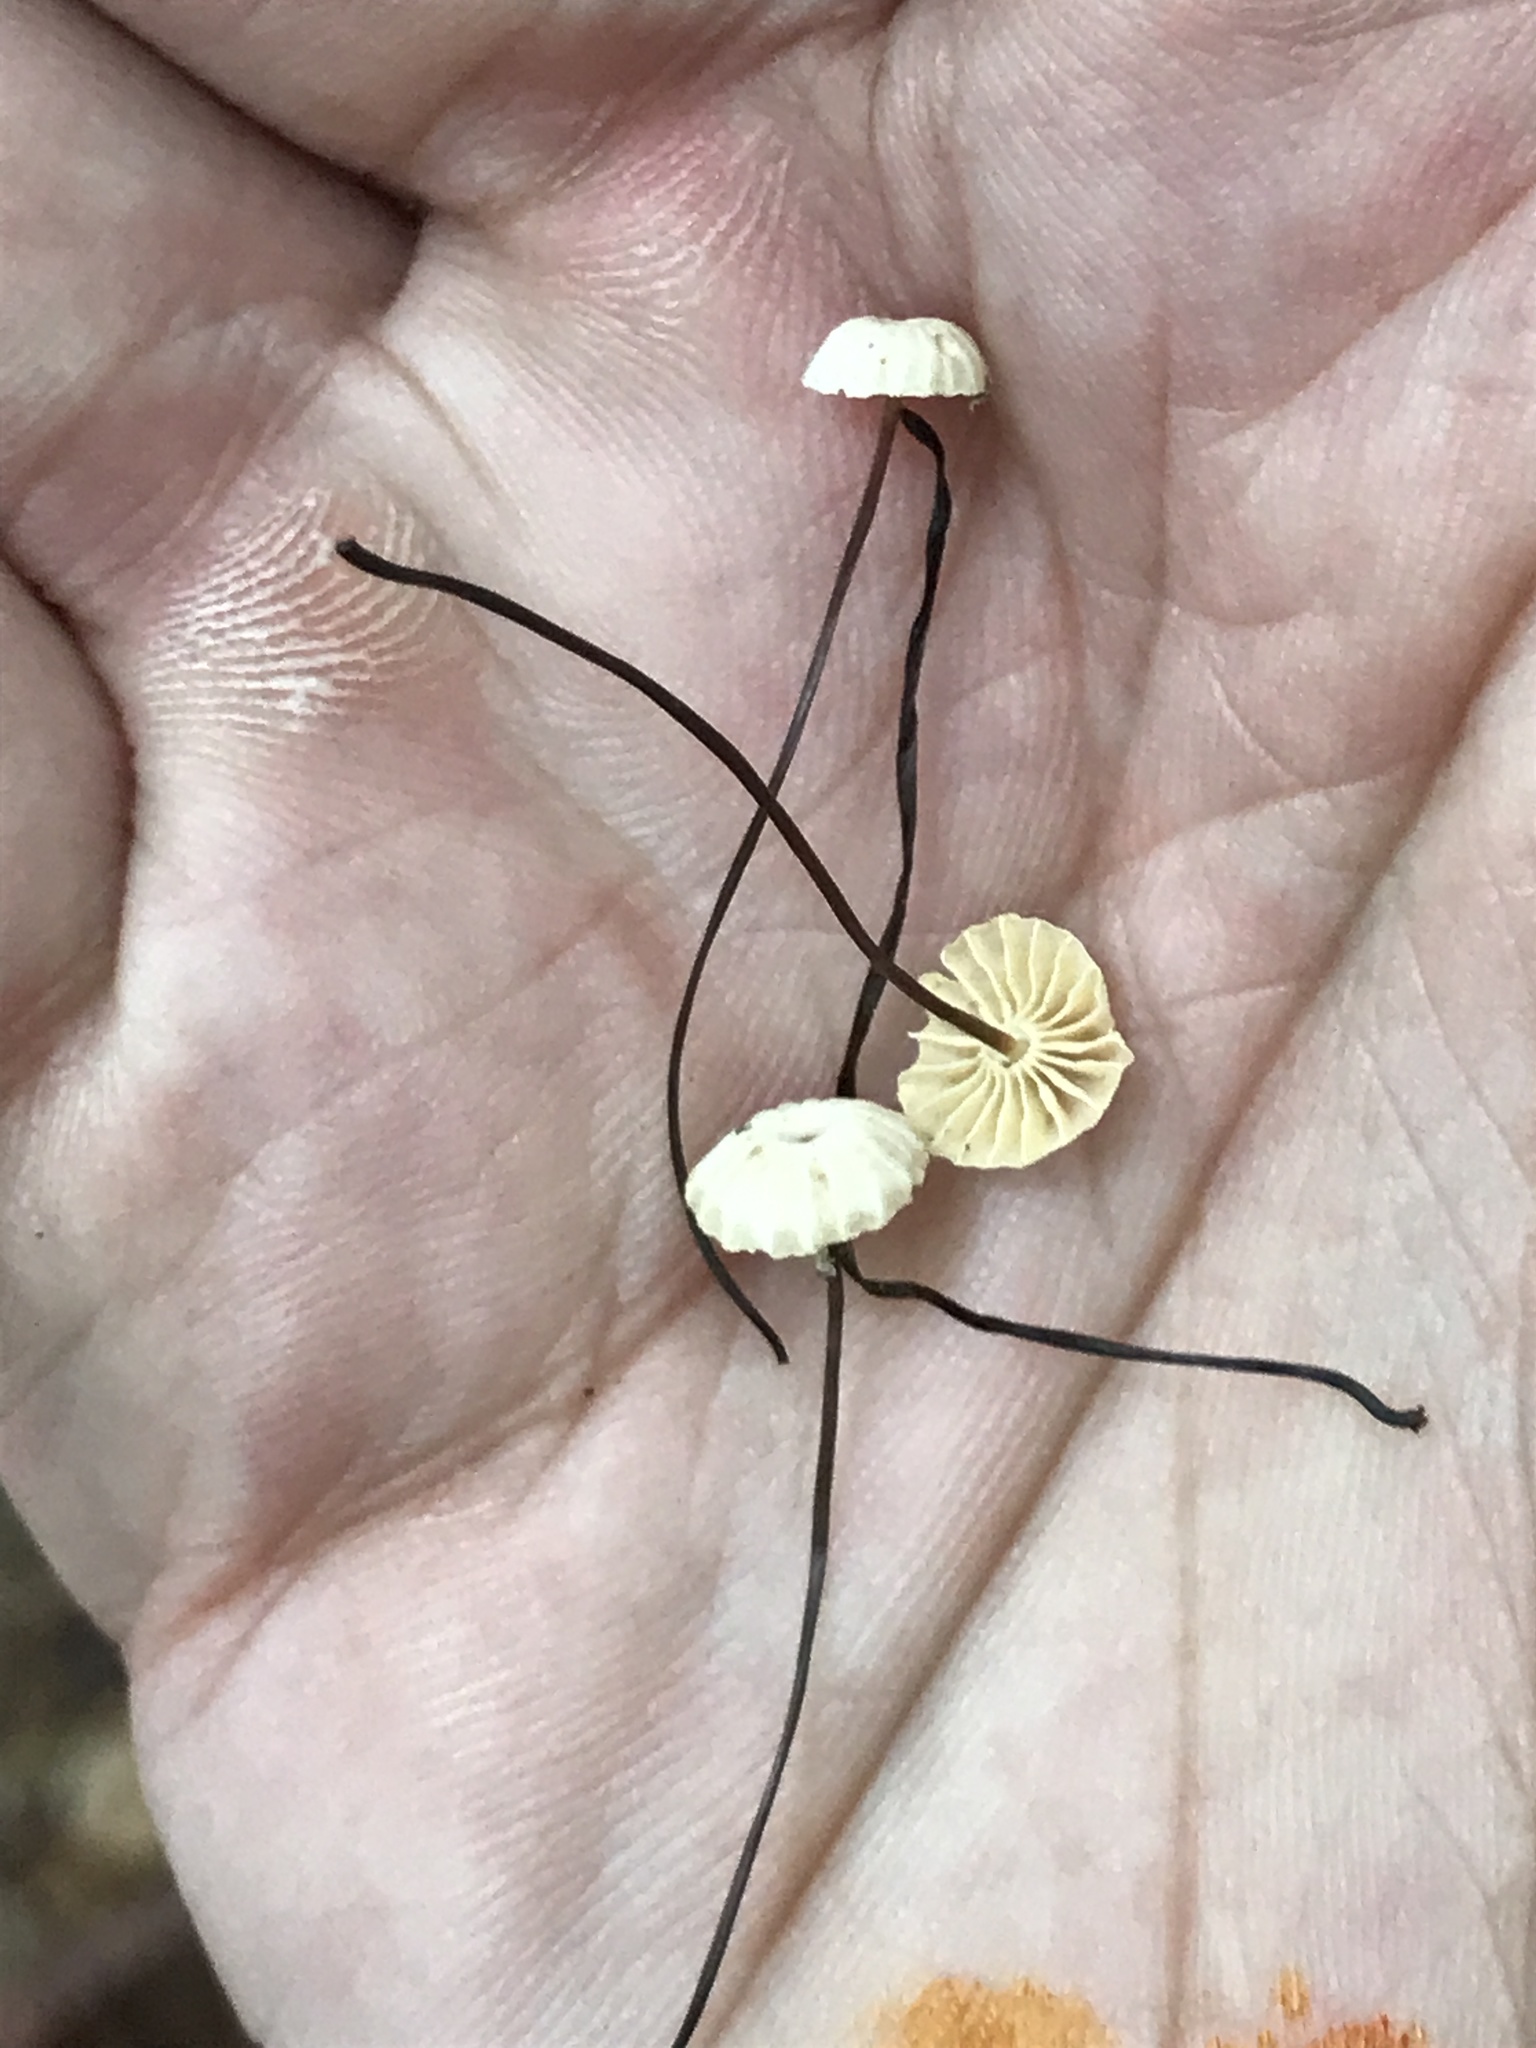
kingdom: Fungi
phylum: Basidiomycota
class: Agaricomycetes
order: Agaricales
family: Marasmiaceae
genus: Marasmius
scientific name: Marasmius rotula
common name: Collared parachute
